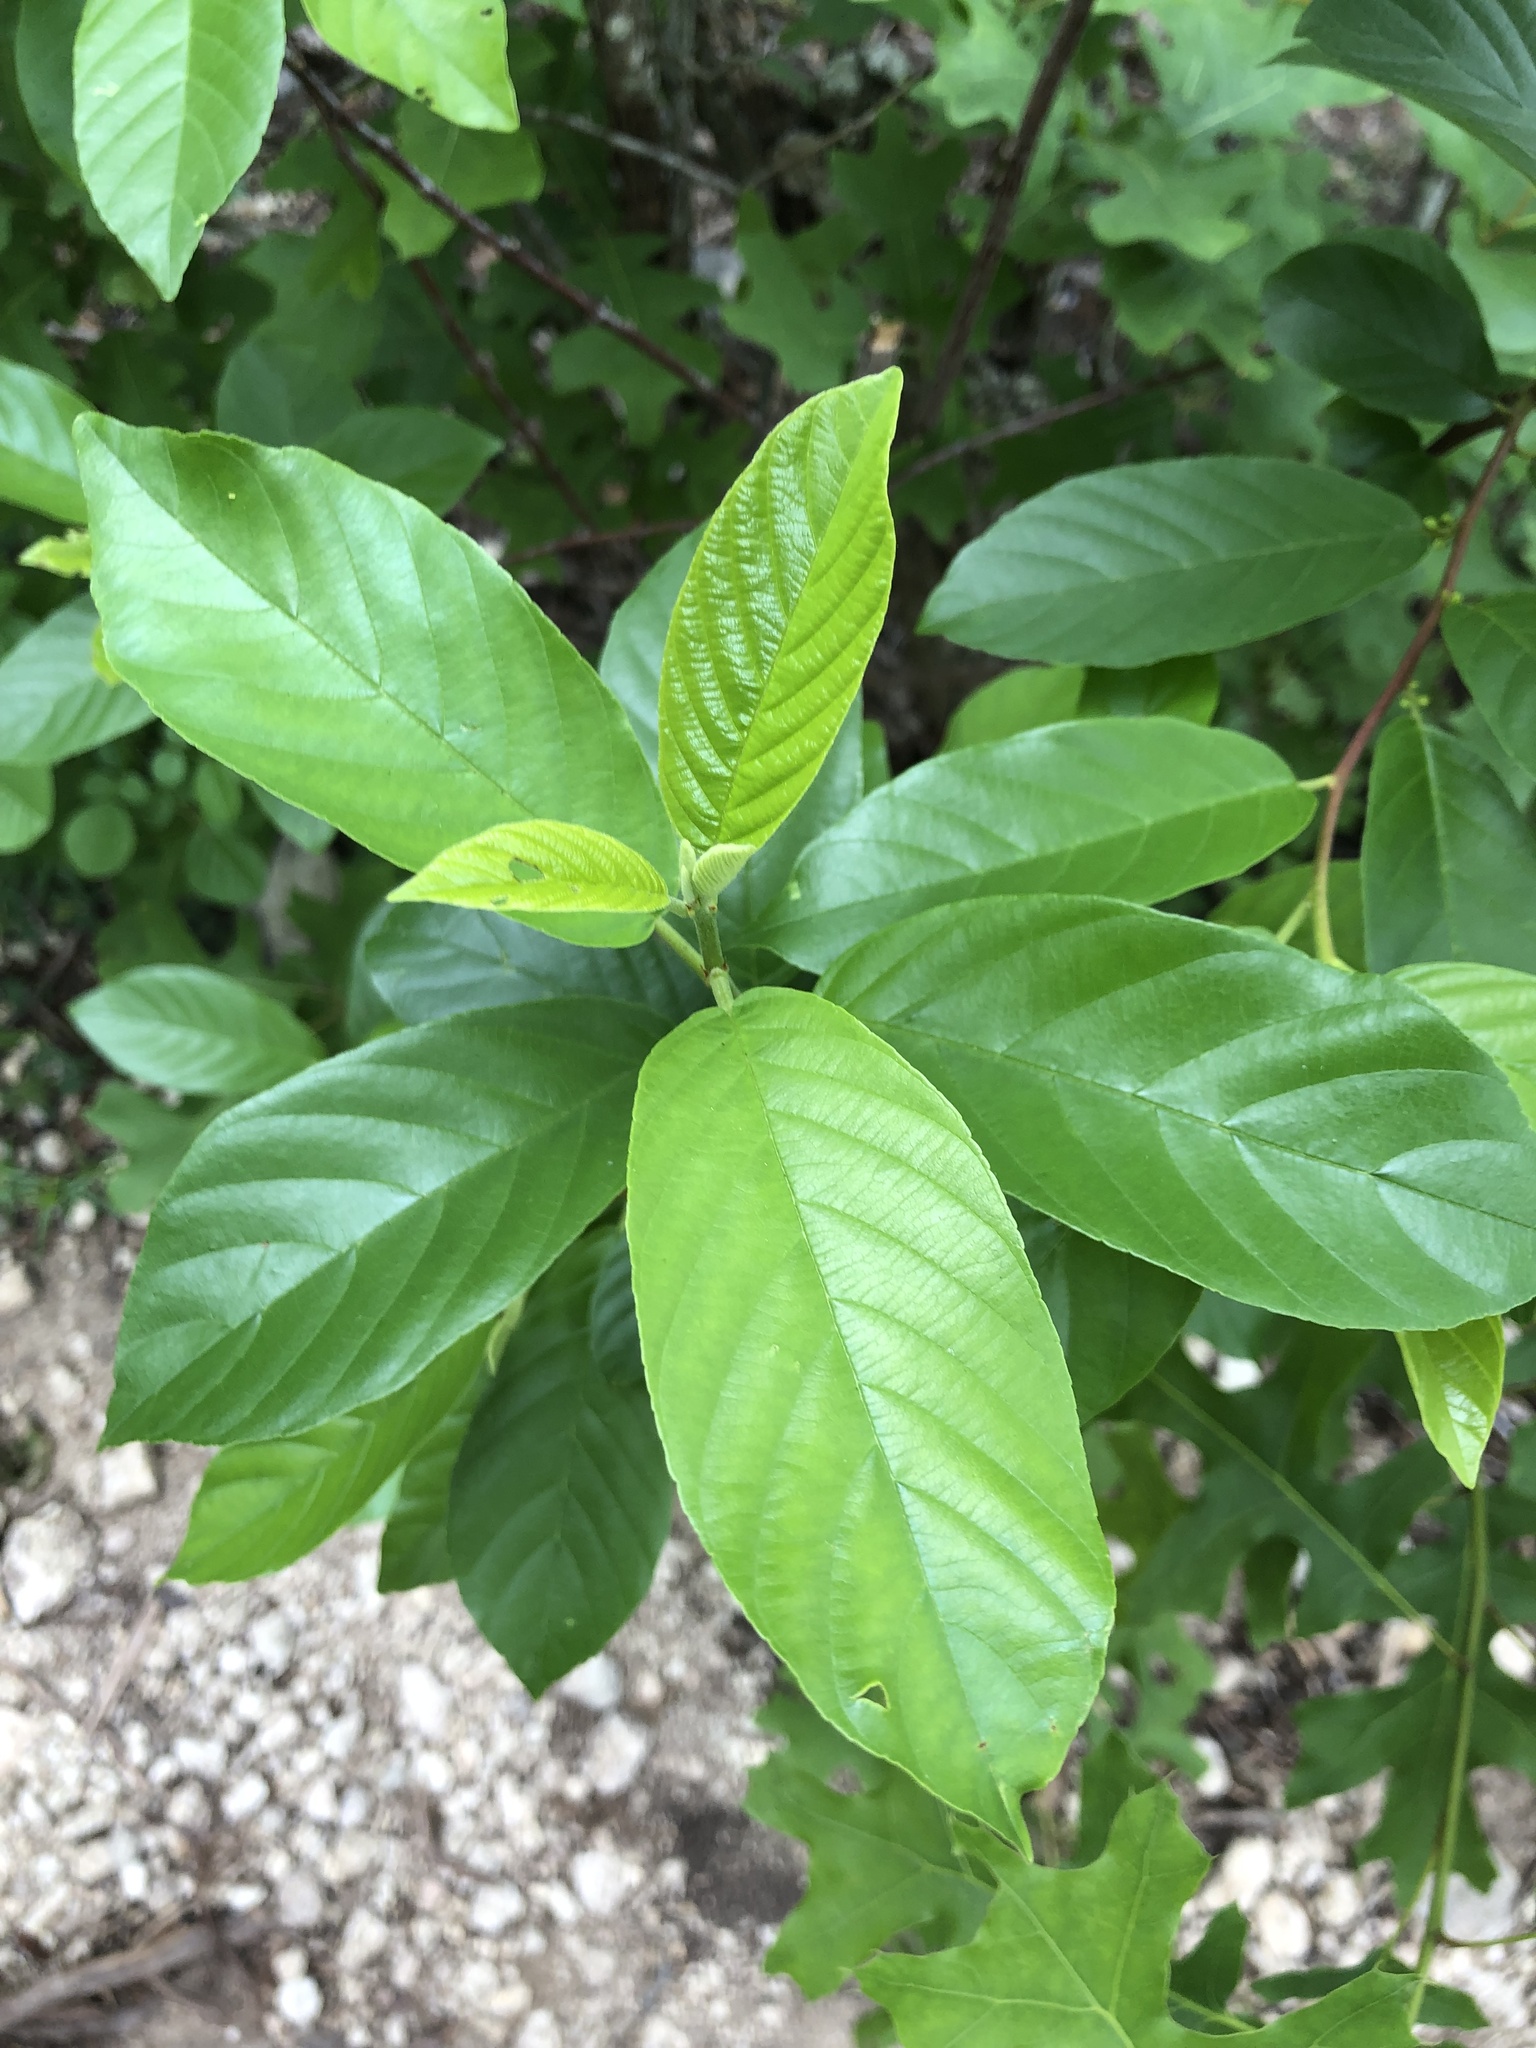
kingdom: Plantae
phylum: Tracheophyta
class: Magnoliopsida
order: Rosales
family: Rhamnaceae
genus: Frangula
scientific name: Frangula caroliniana
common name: Carolina buckthorn
